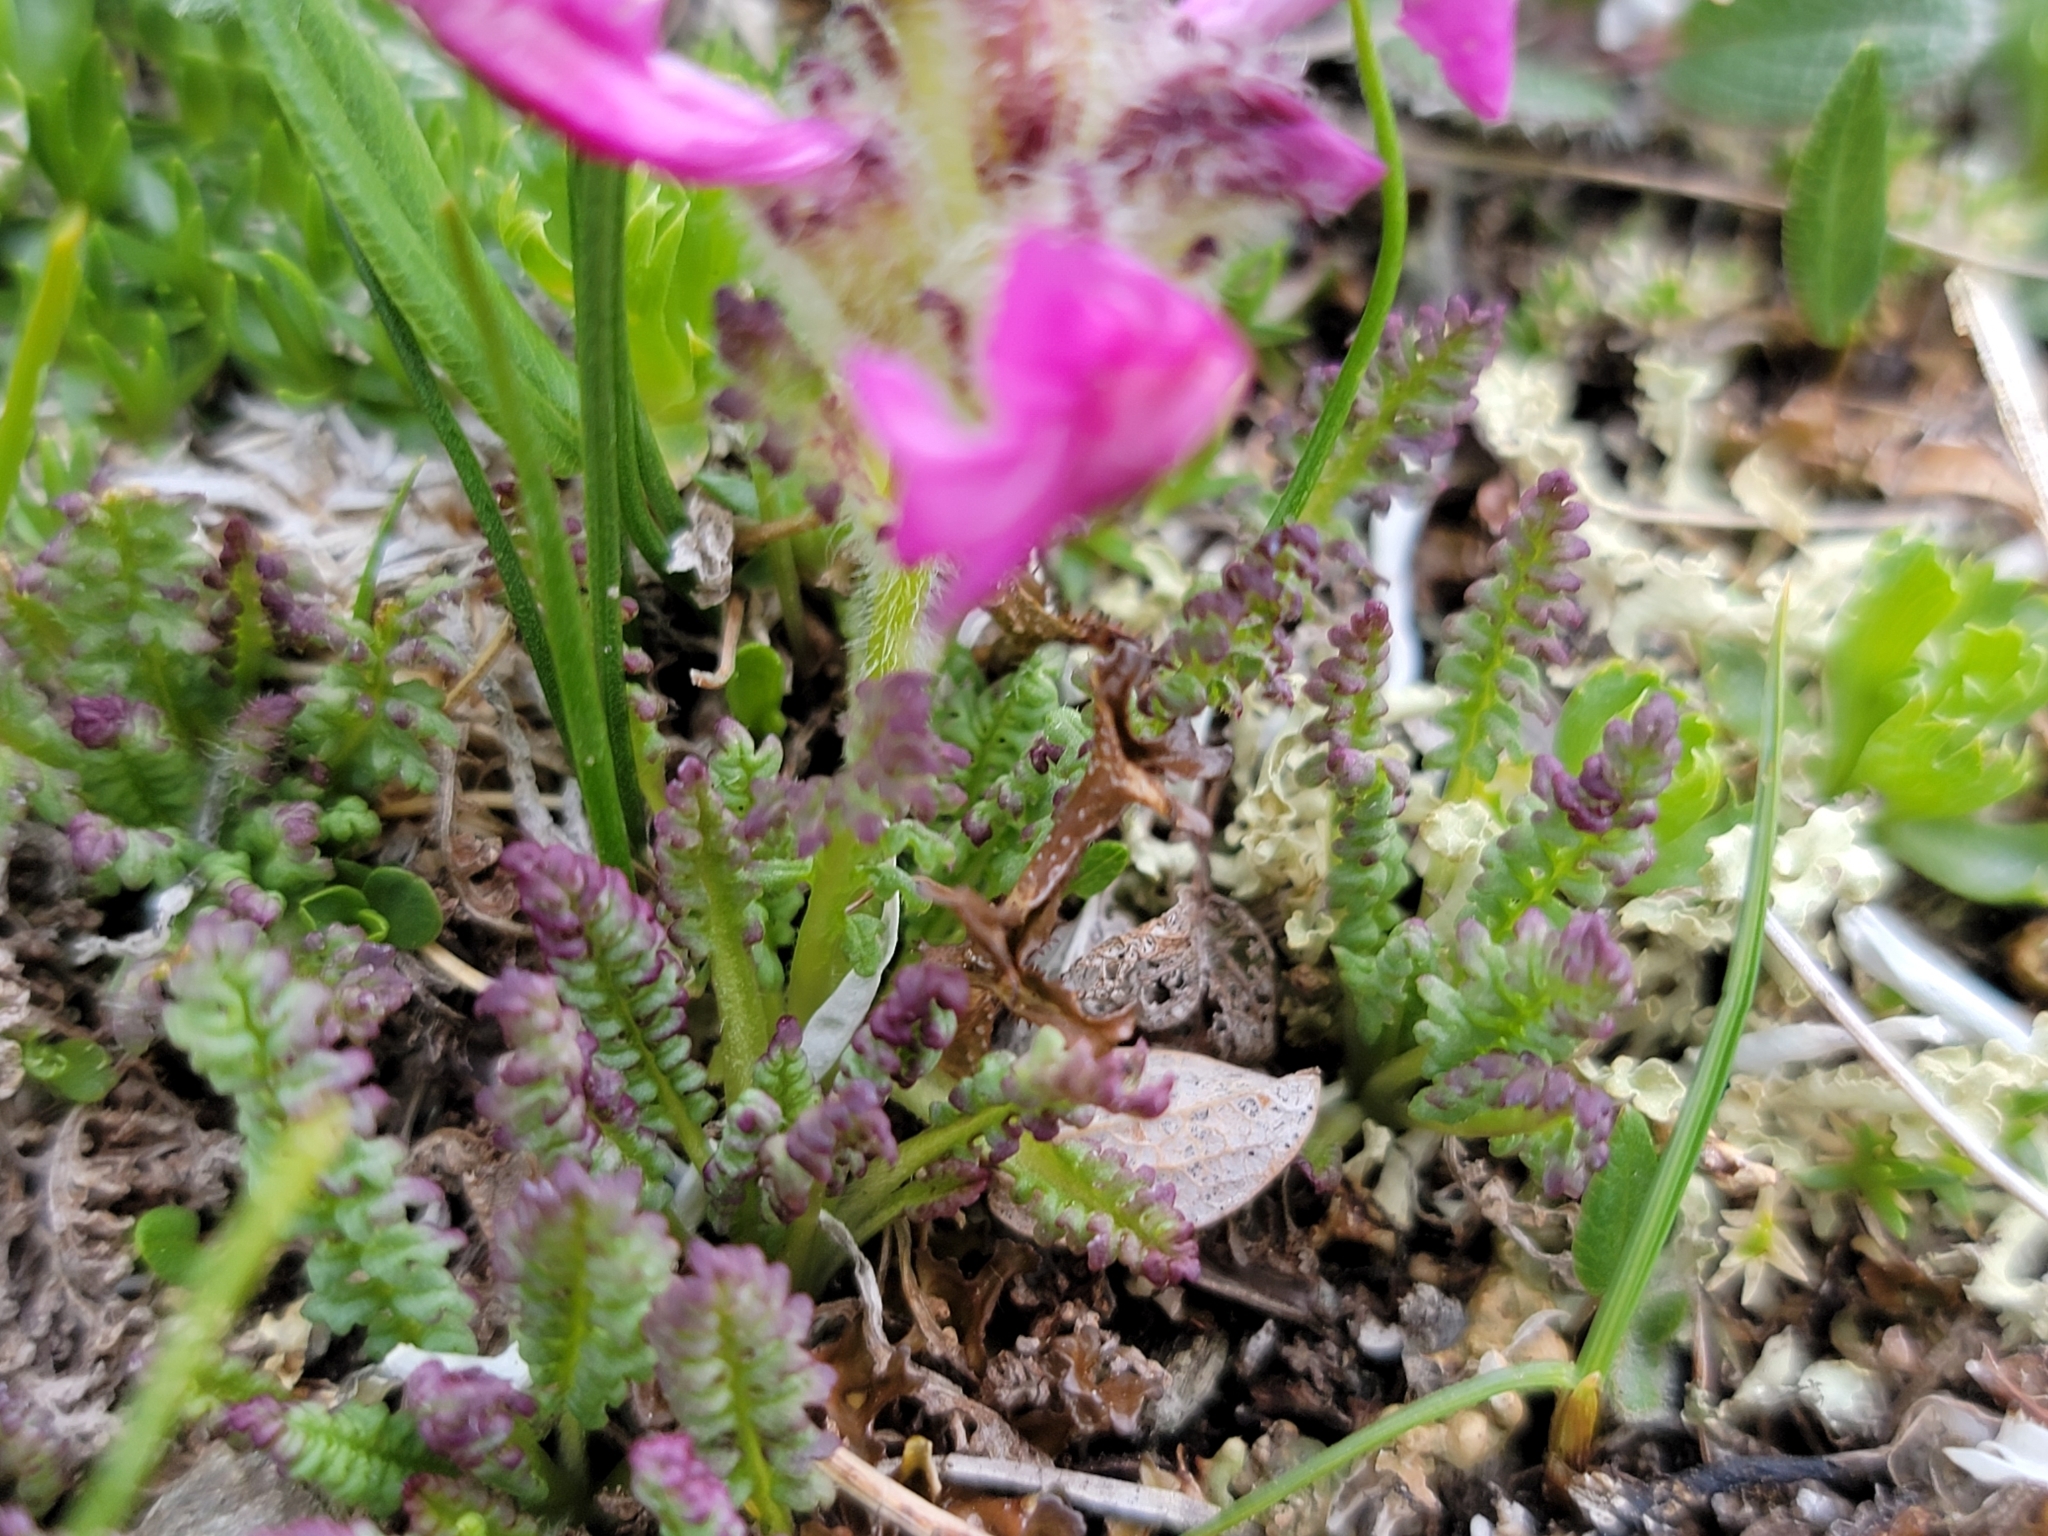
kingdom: Plantae
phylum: Tracheophyta
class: Magnoliopsida
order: Lamiales
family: Orobanchaceae
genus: Pedicularis
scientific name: Pedicularis asplenifolia
